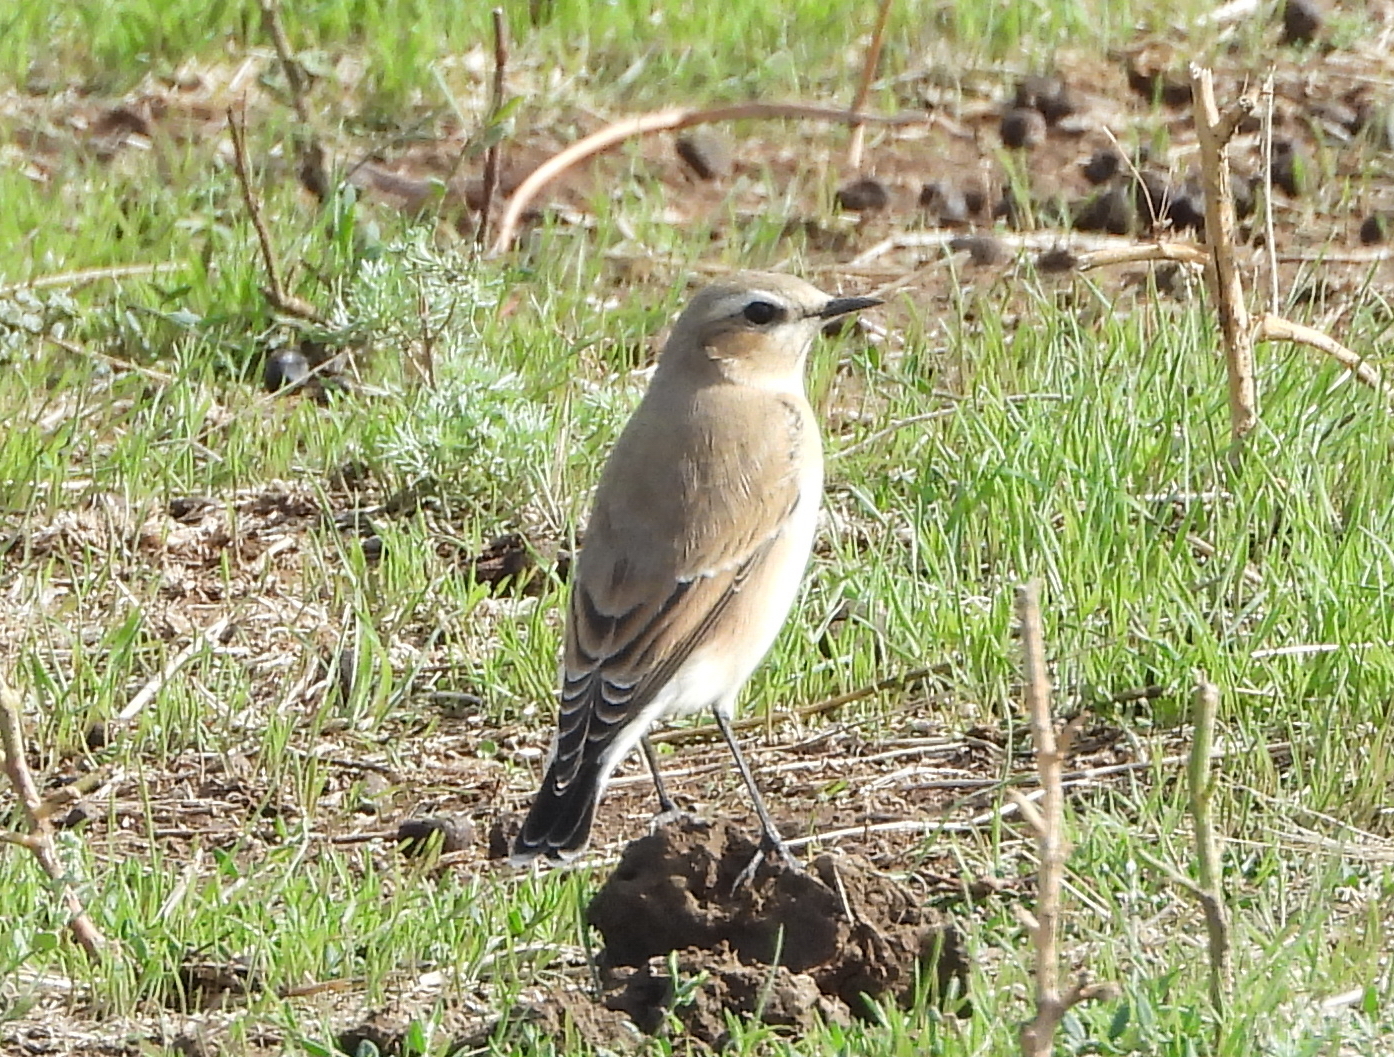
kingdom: Animalia
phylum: Chordata
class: Aves
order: Passeriformes
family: Muscicapidae
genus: Oenanthe
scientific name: Oenanthe oenanthe
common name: Northern wheatear
